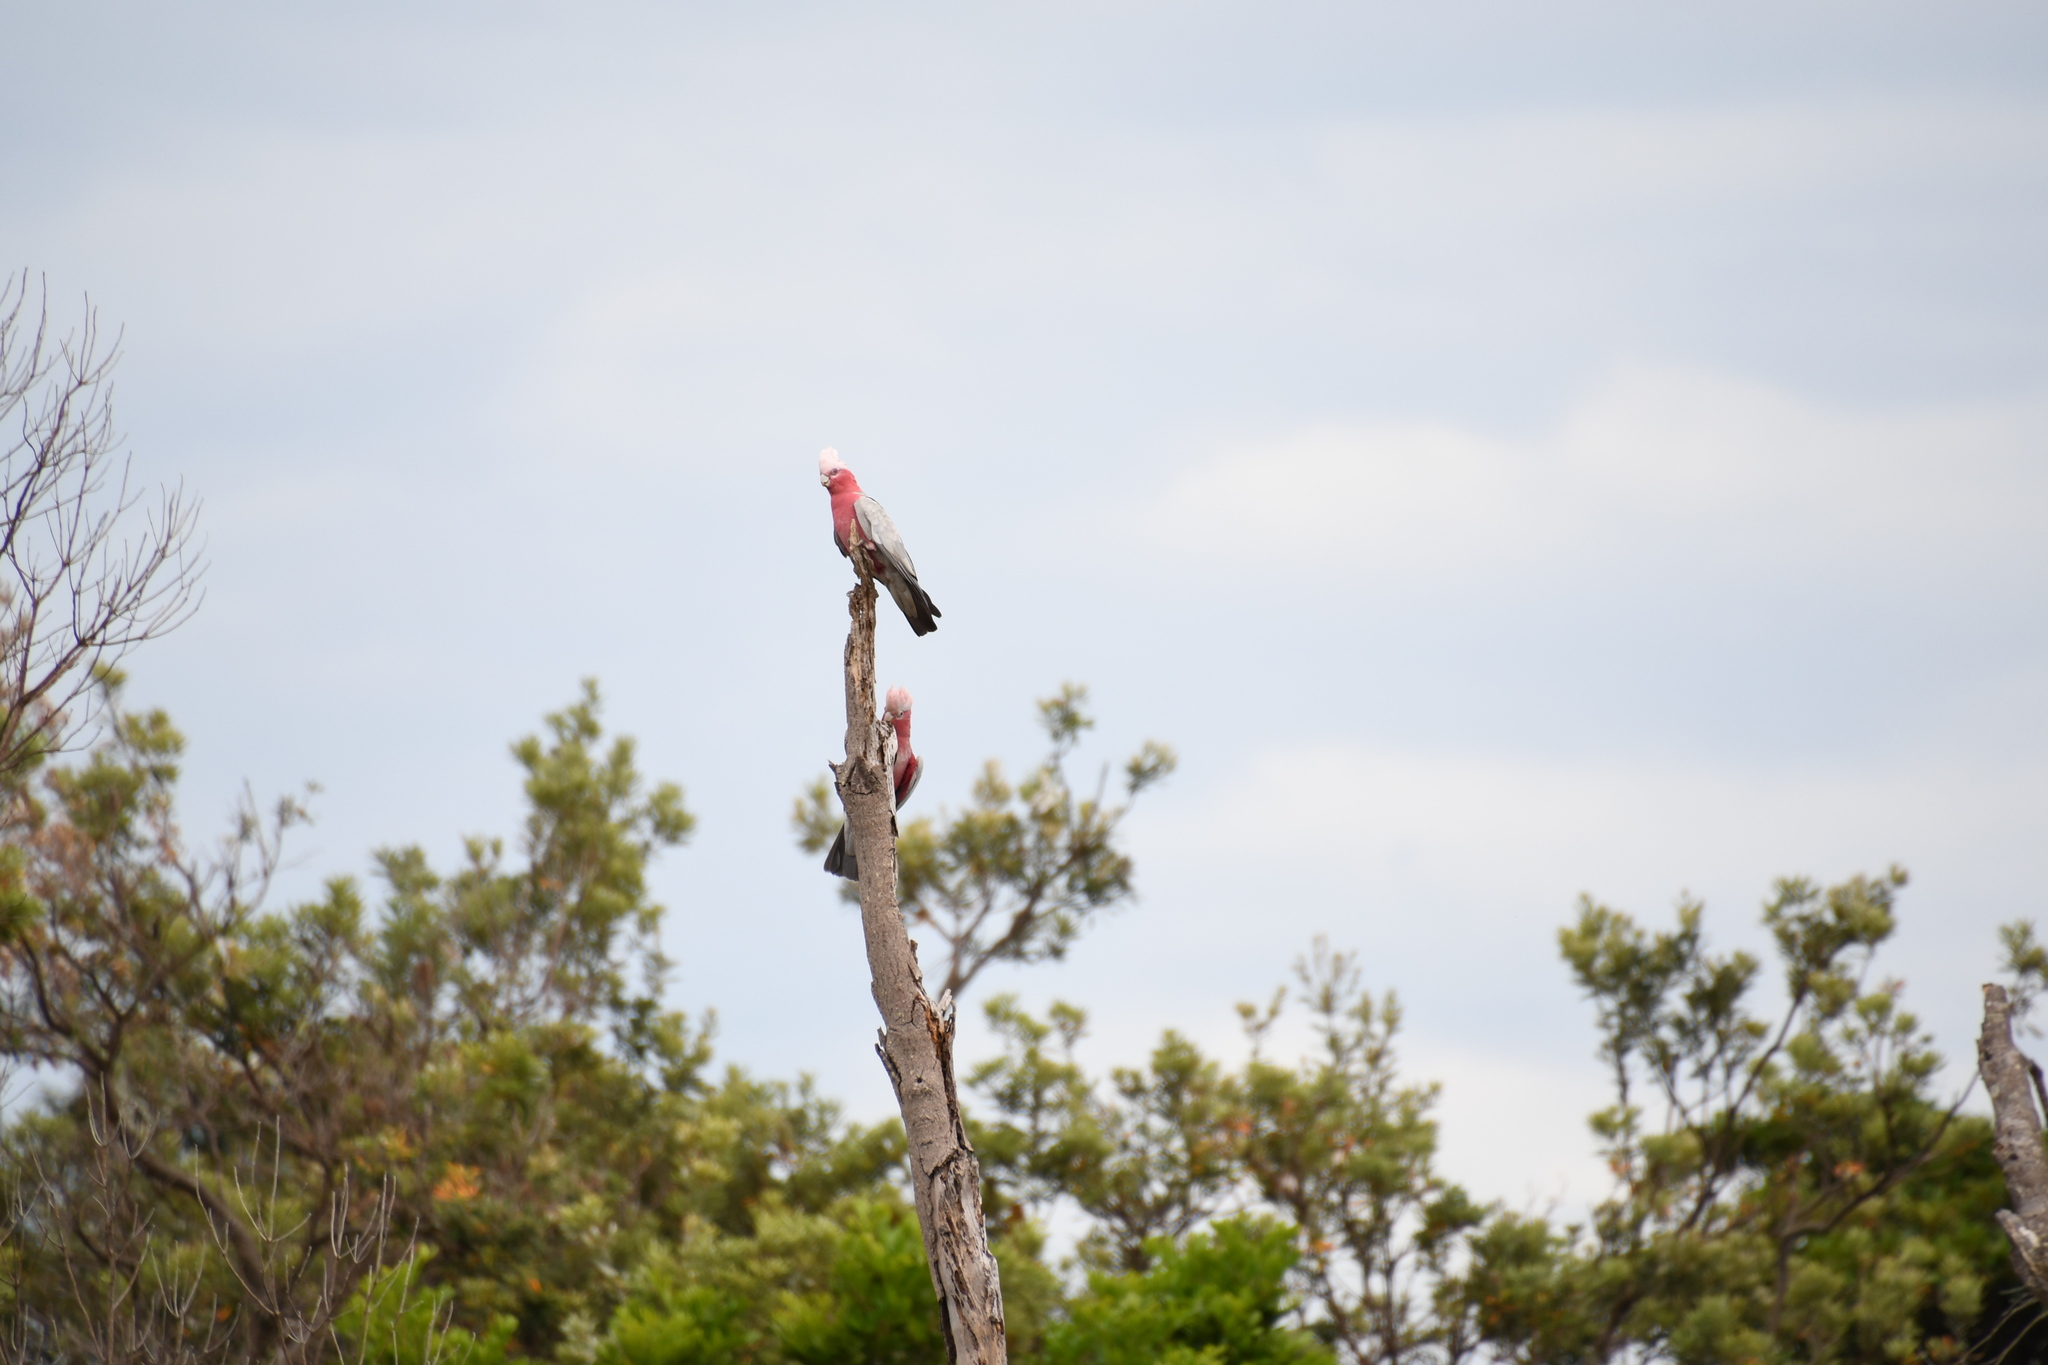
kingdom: Animalia
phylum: Chordata
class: Aves
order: Psittaciformes
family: Psittacidae
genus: Eolophus
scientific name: Eolophus roseicapilla
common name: Galah
